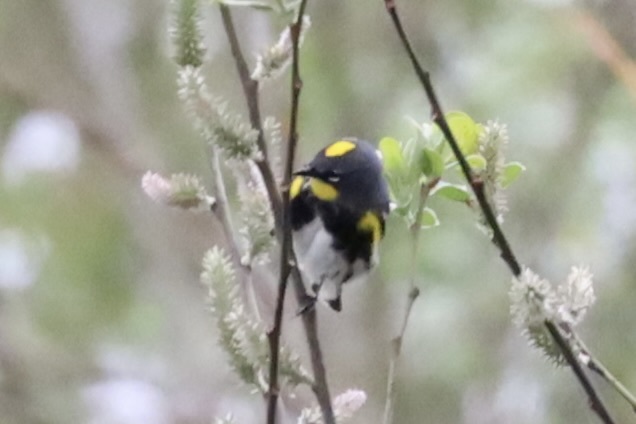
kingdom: Animalia
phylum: Chordata
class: Aves
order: Passeriformes
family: Parulidae
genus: Setophaga
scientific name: Setophaga auduboni
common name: Audubon's warbler
